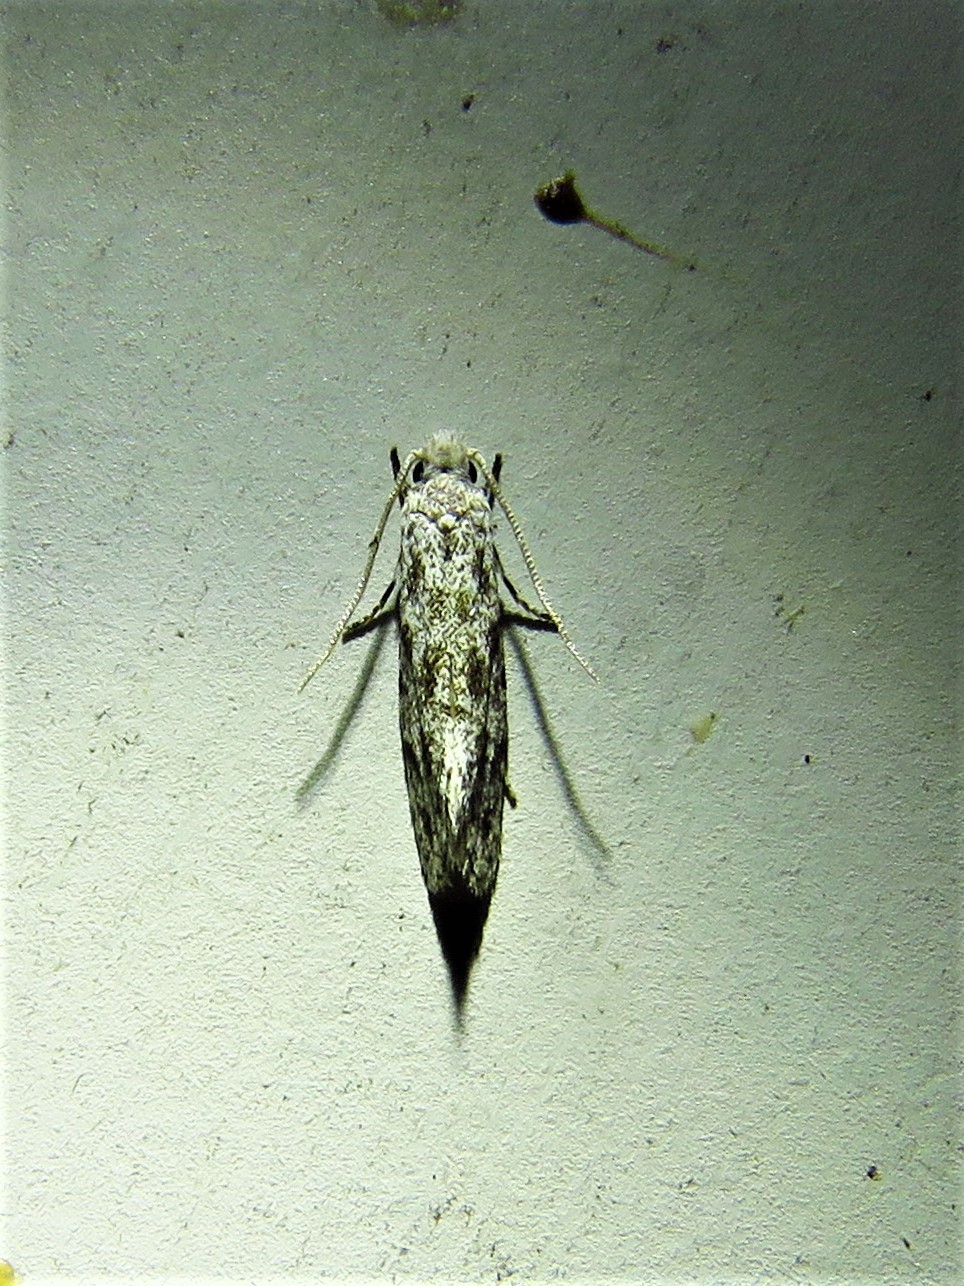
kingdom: Animalia
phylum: Arthropoda
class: Insecta
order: Lepidoptera
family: Meessiidae
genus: Diachorisia
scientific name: Diachorisia velatella
